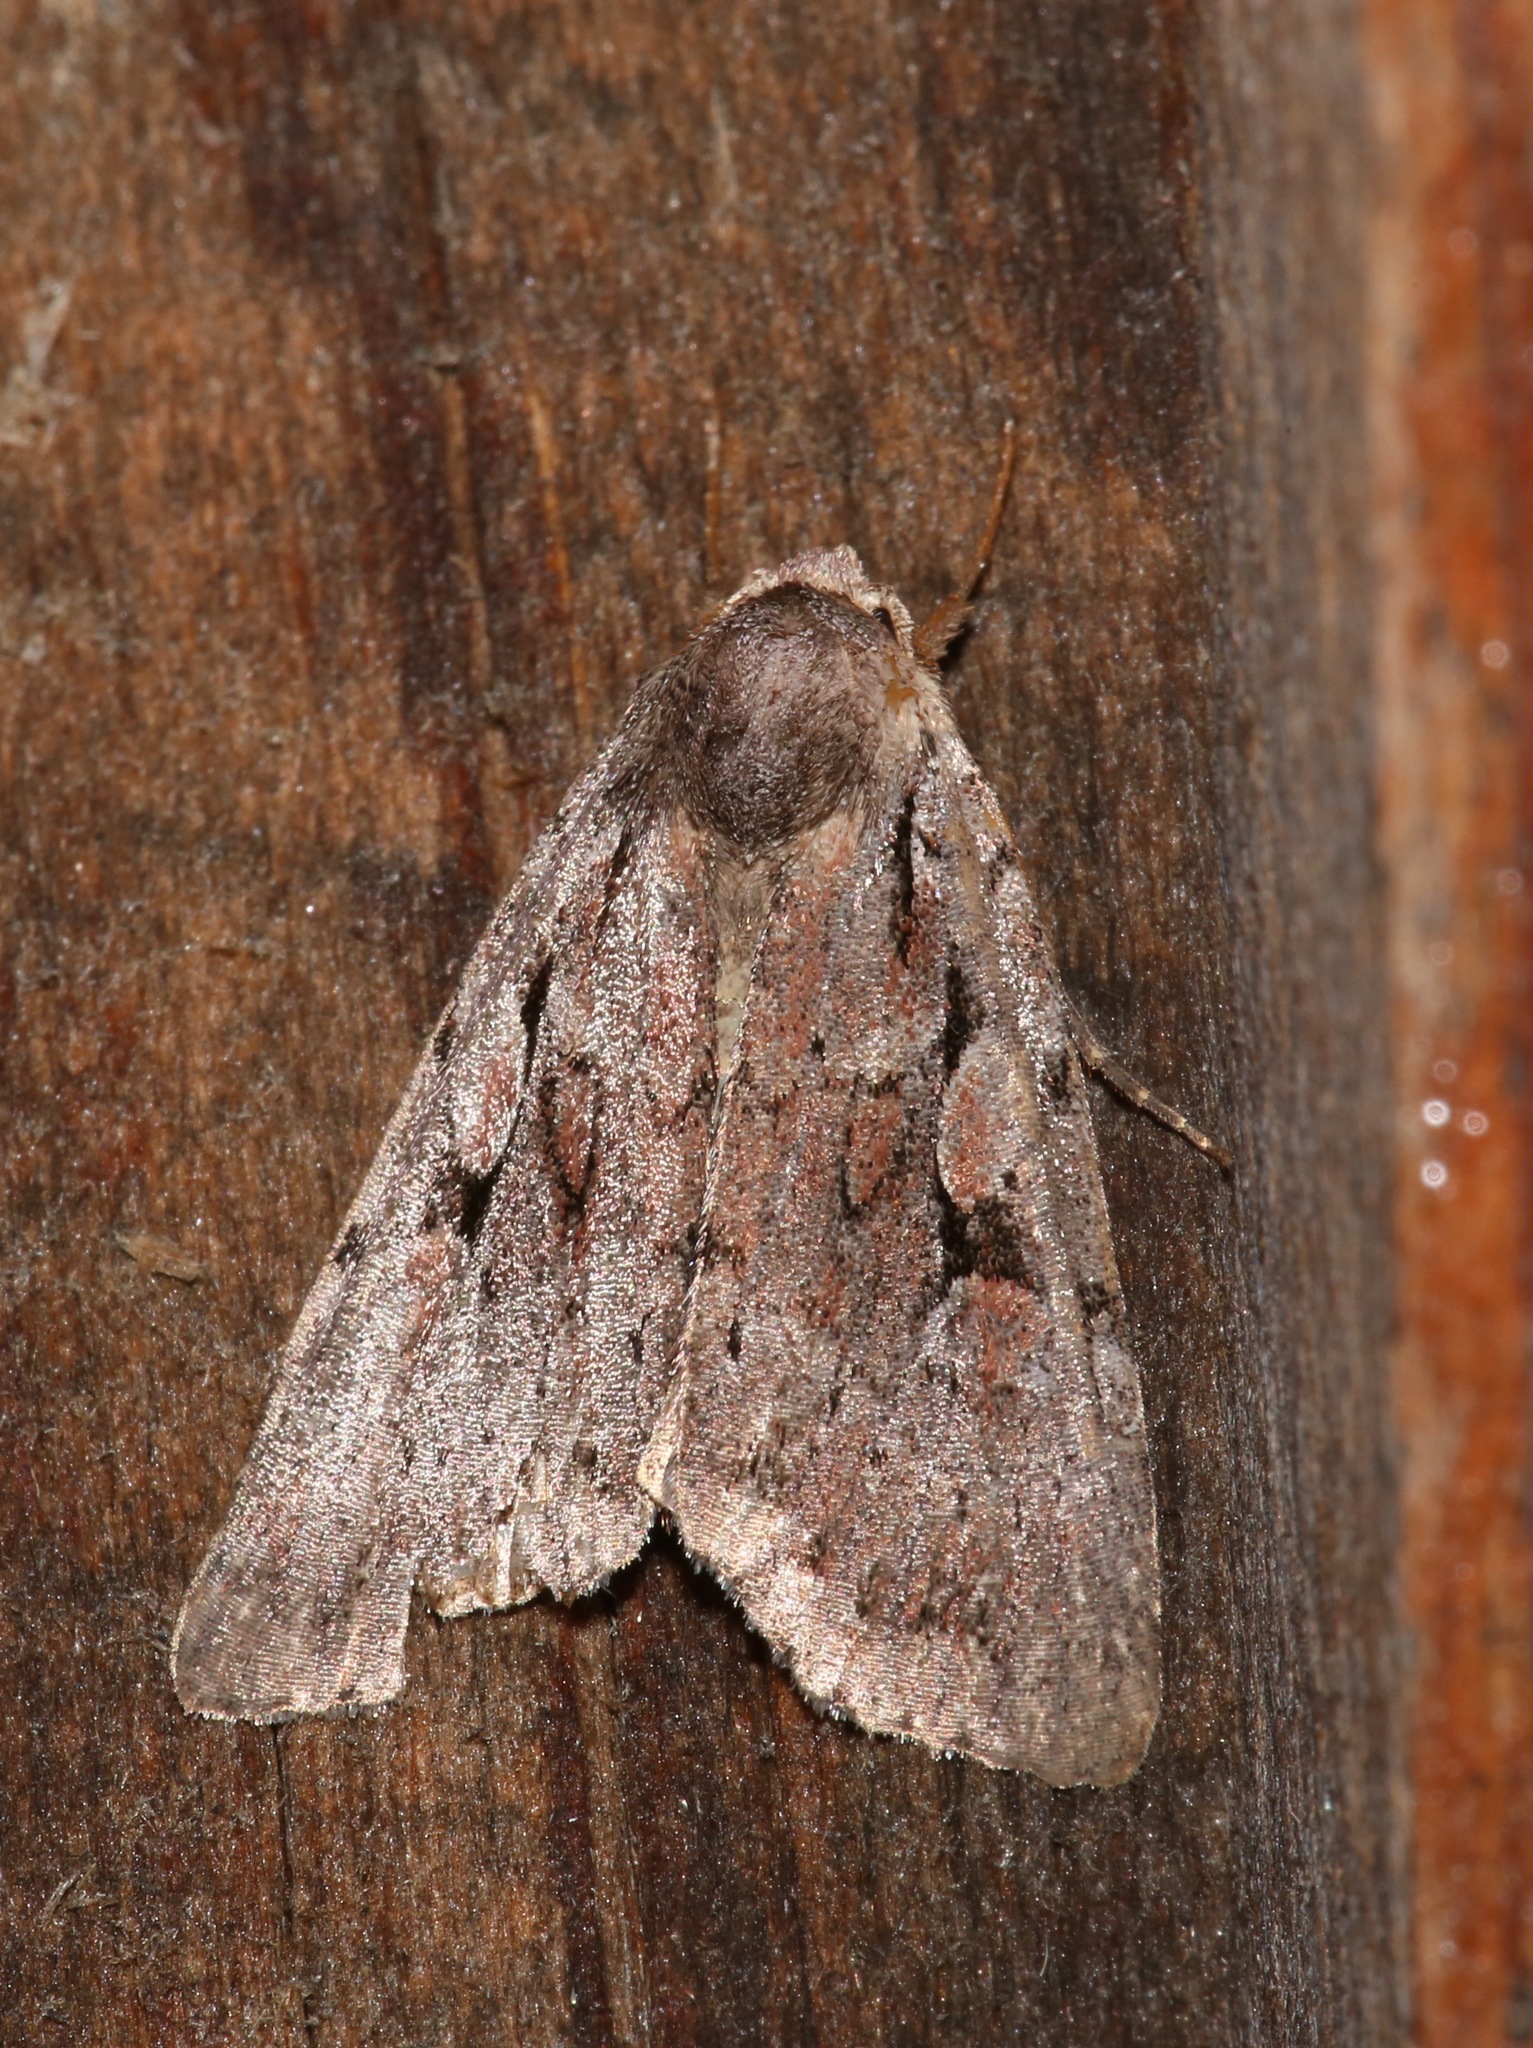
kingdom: Animalia
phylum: Arthropoda
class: Insecta
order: Lepidoptera
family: Noctuidae
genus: Xestia
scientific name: Xestia badicollis
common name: Northern variable dart
